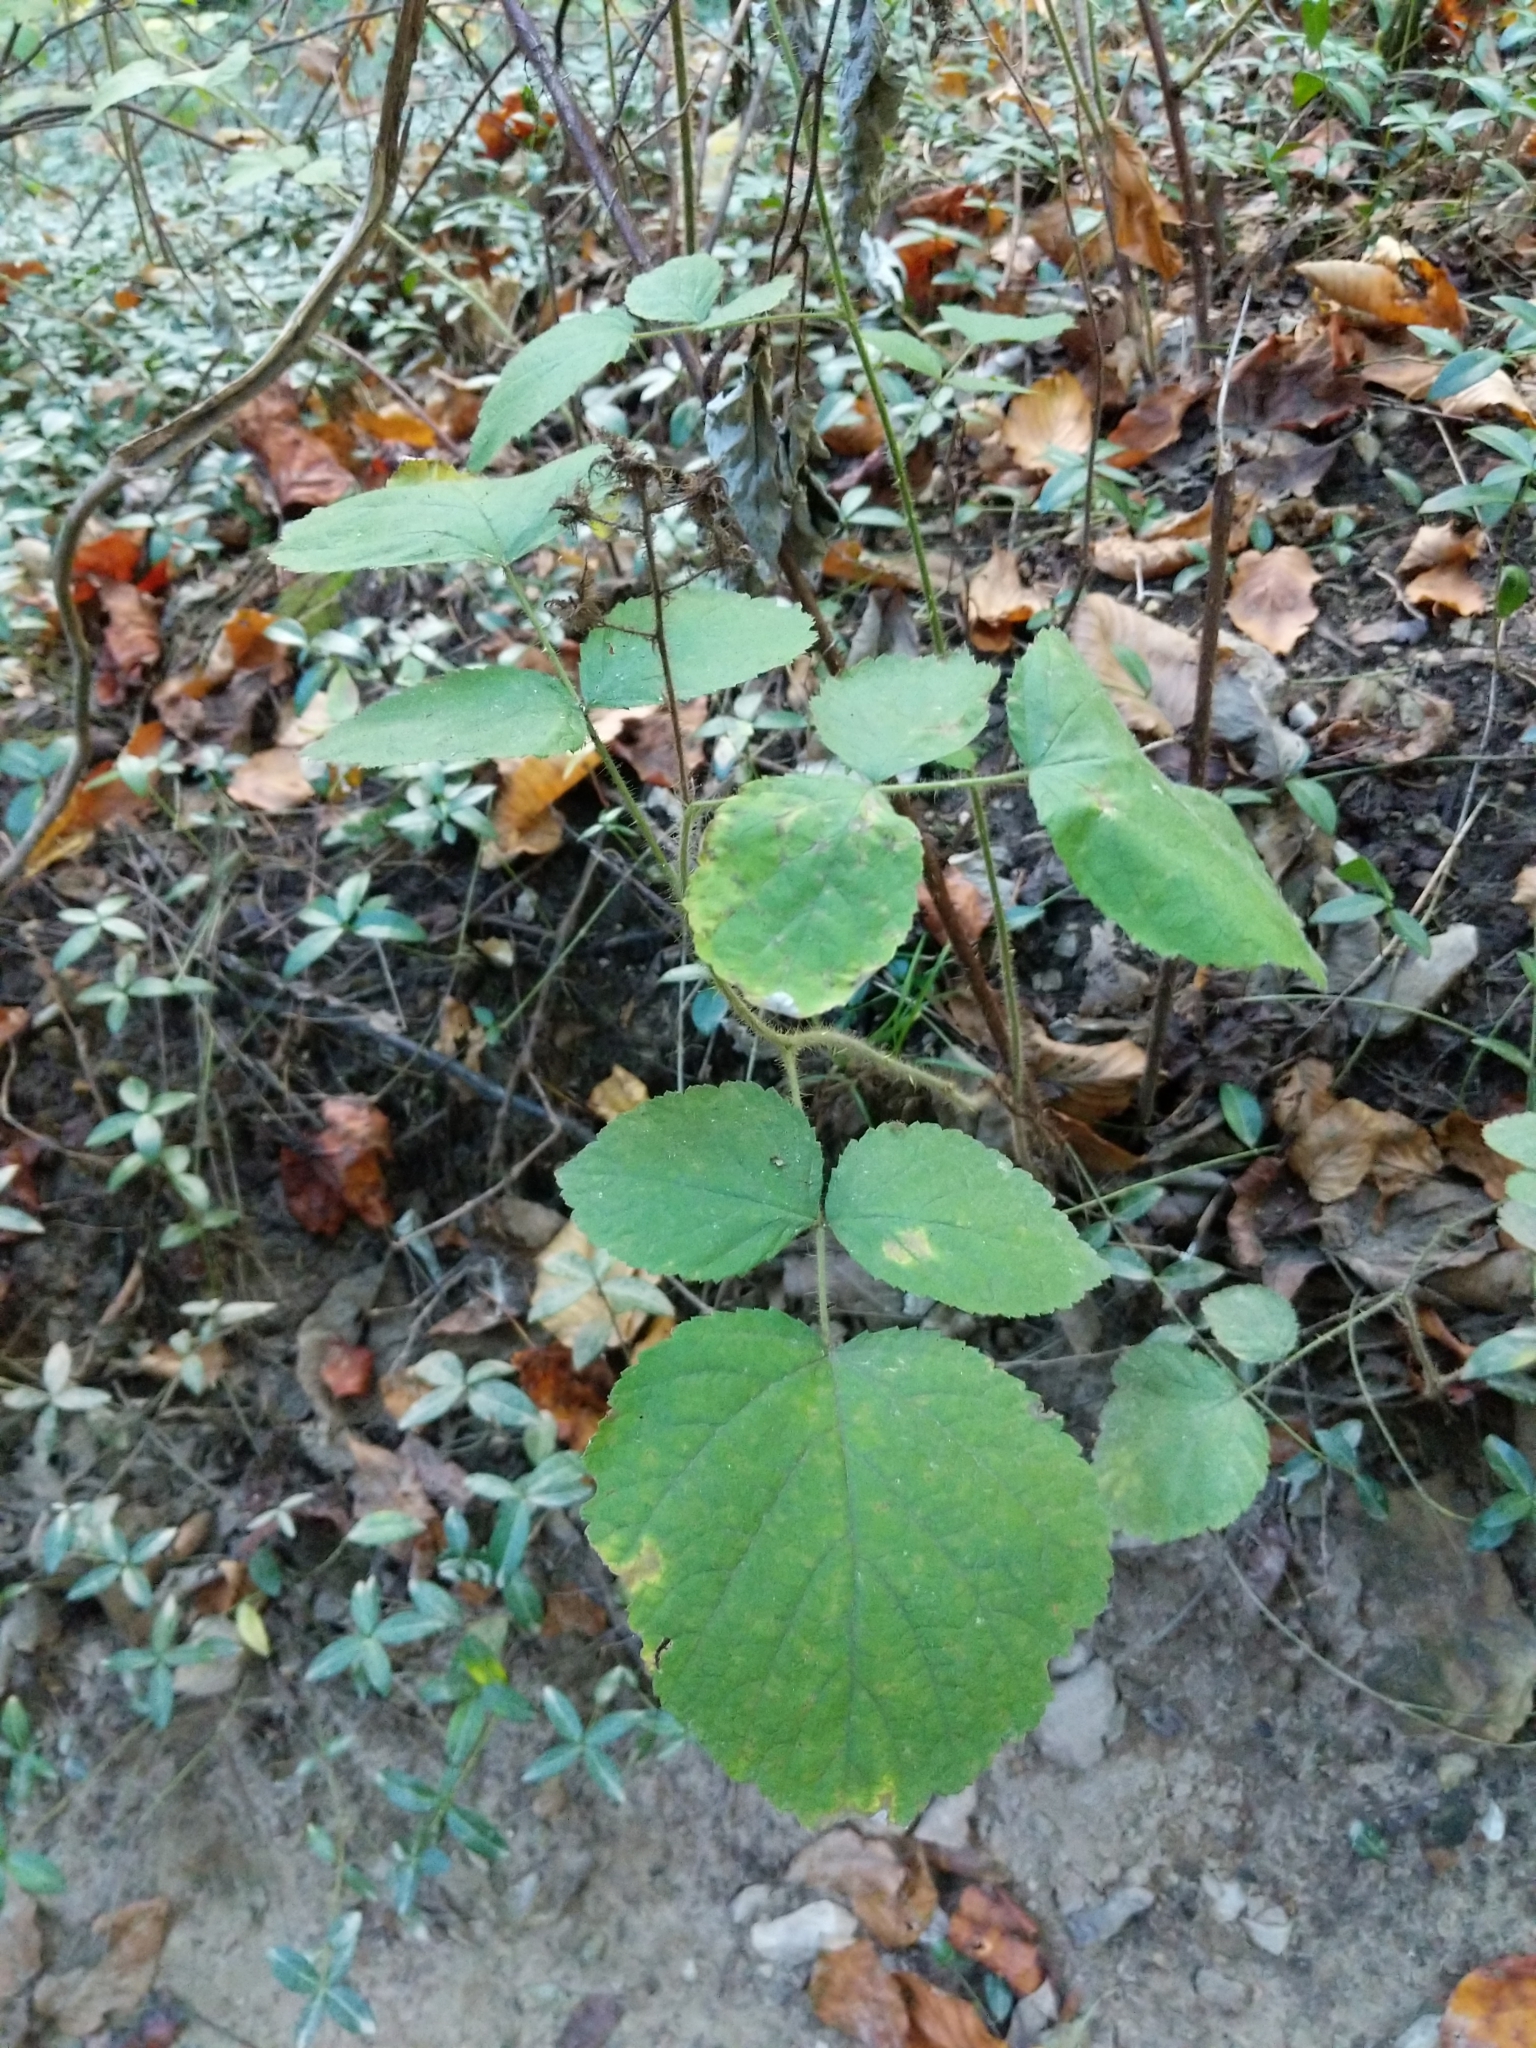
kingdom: Plantae
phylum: Tracheophyta
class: Magnoliopsida
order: Rosales
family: Rosaceae
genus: Rubus
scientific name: Rubus phoenicolasius
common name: Japanese wineberry
